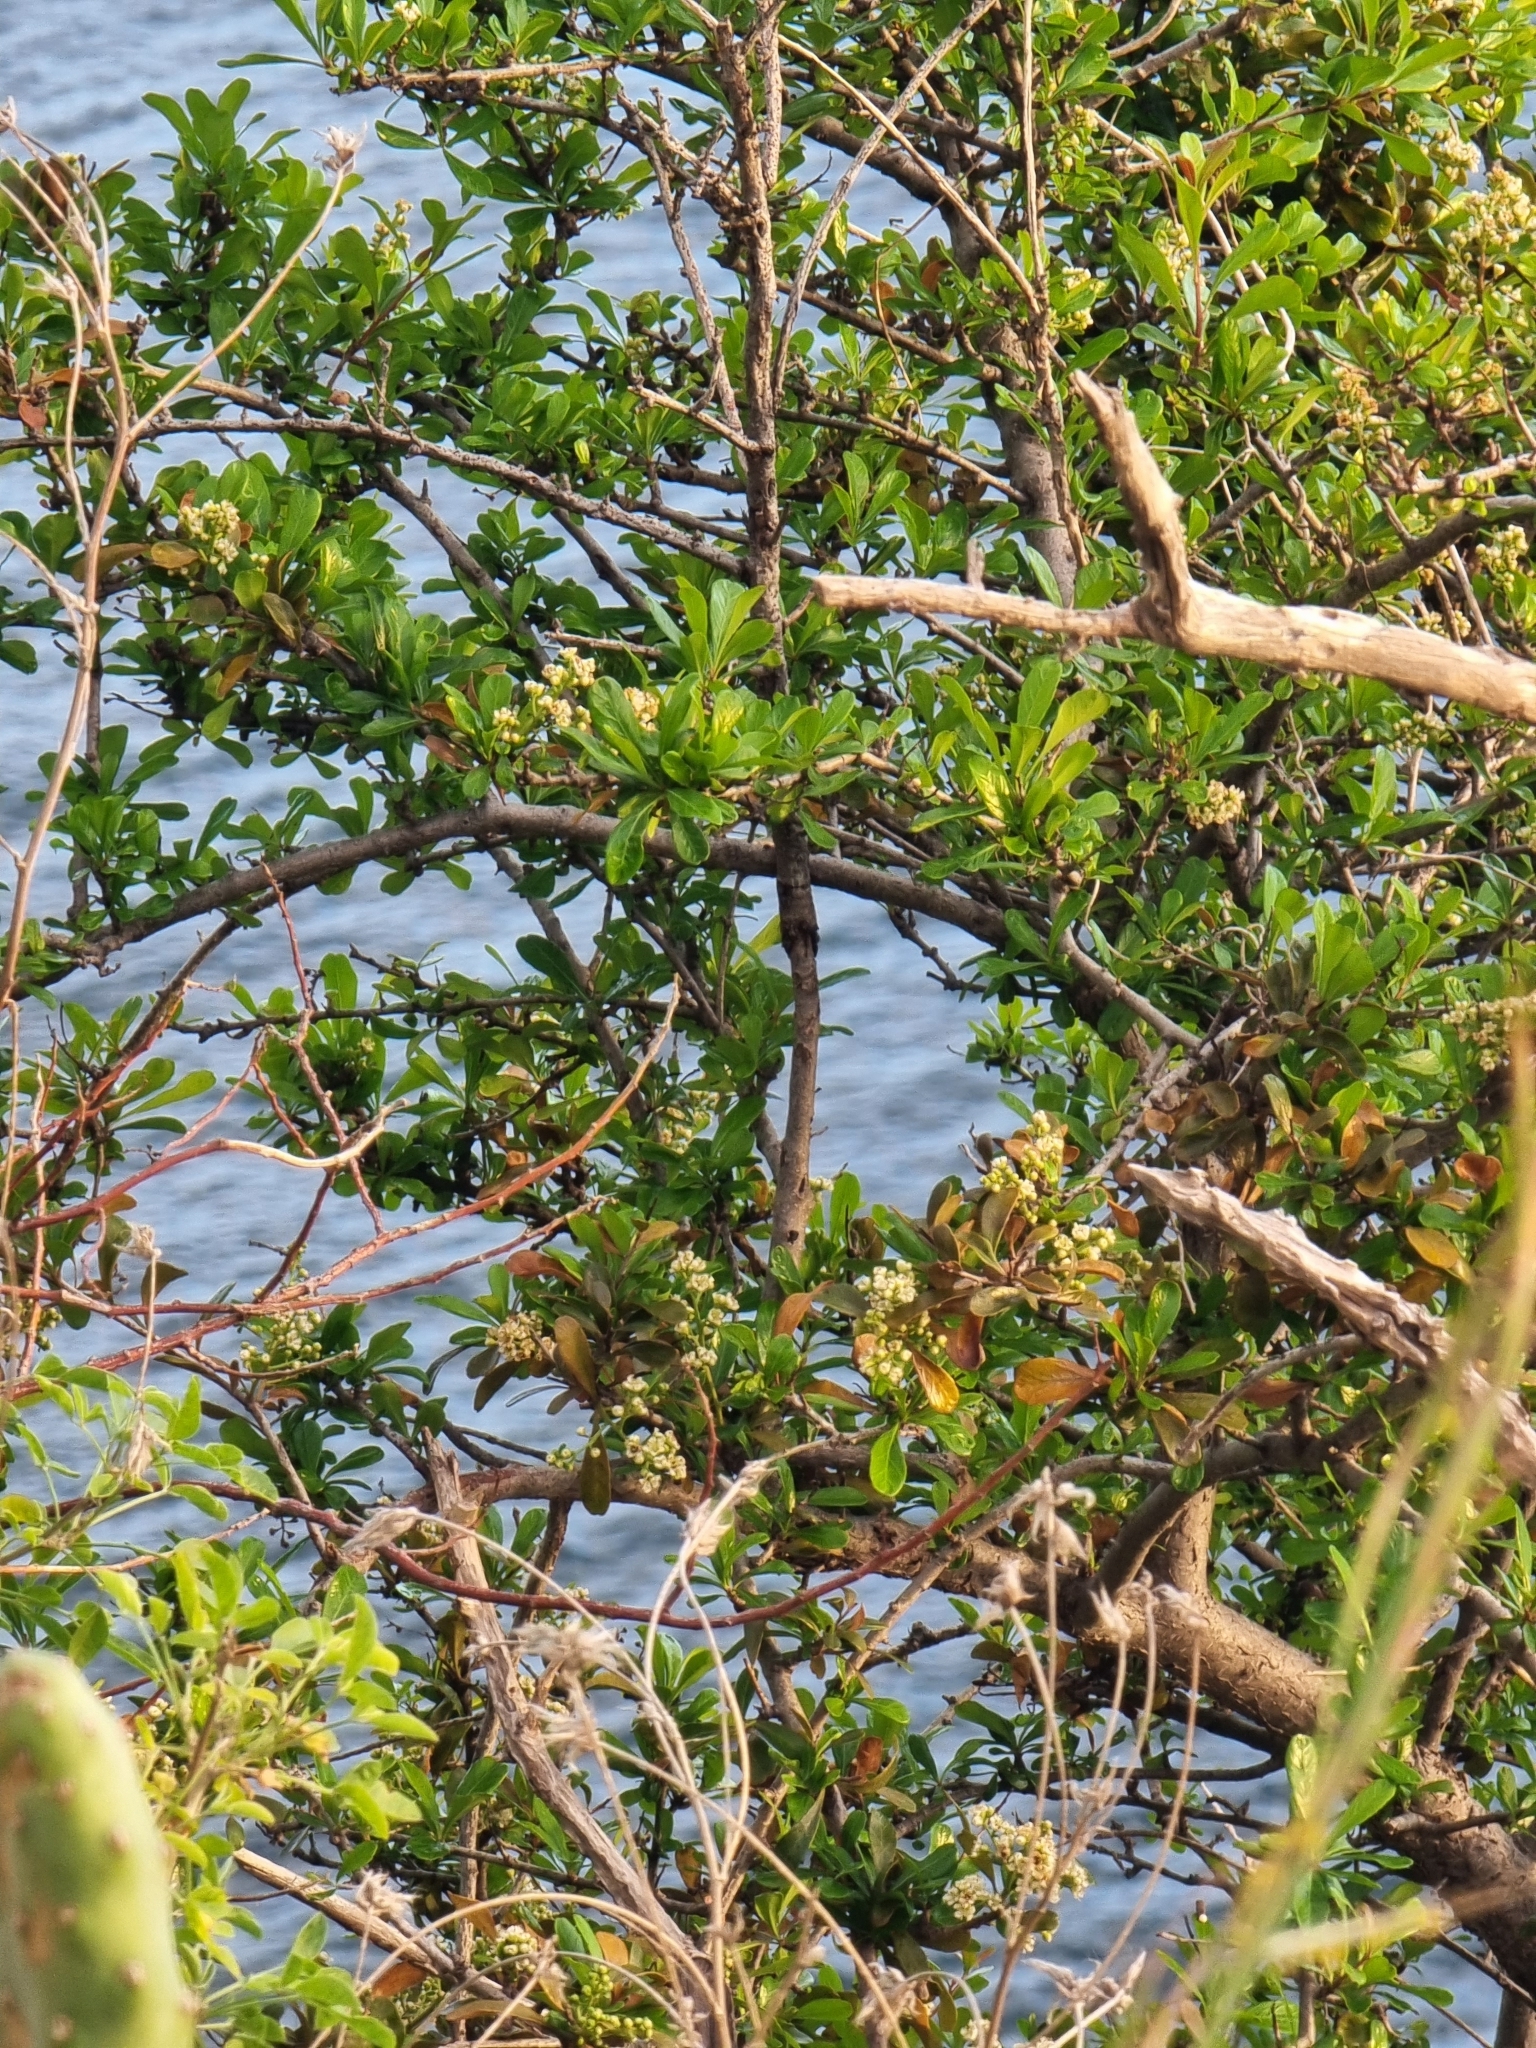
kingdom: Plantae
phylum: Tracheophyta
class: Magnoliopsida
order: Rosales
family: Rosaceae
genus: Chamaemeles
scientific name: Chamaemeles coriacea
